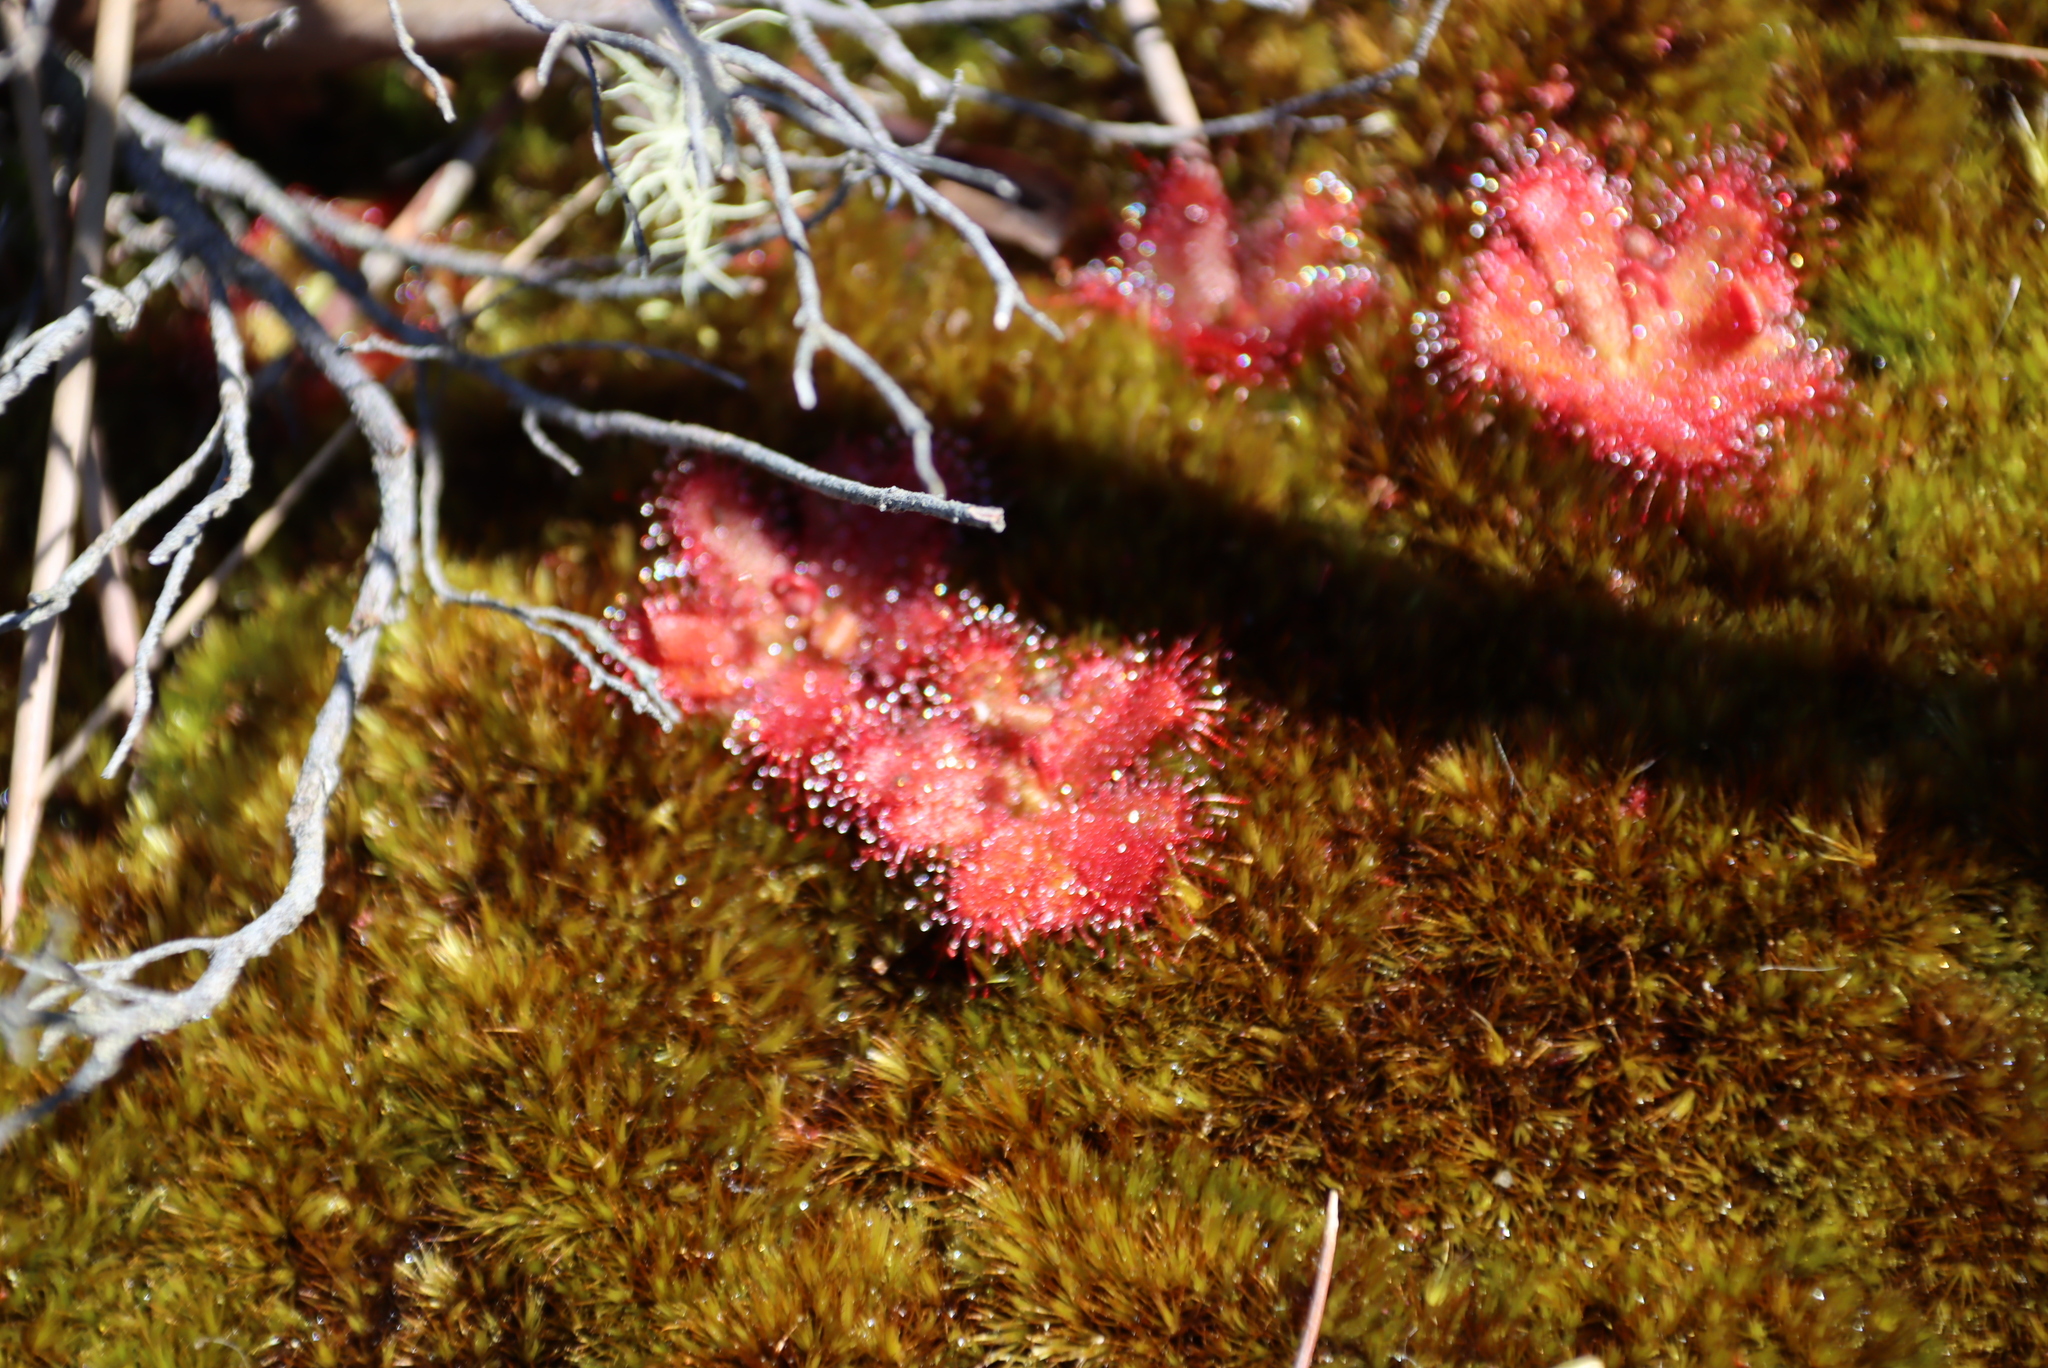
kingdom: Plantae
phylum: Tracheophyta
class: Magnoliopsida
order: Caryophyllales
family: Droseraceae
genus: Drosera
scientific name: Drosera trinervia
